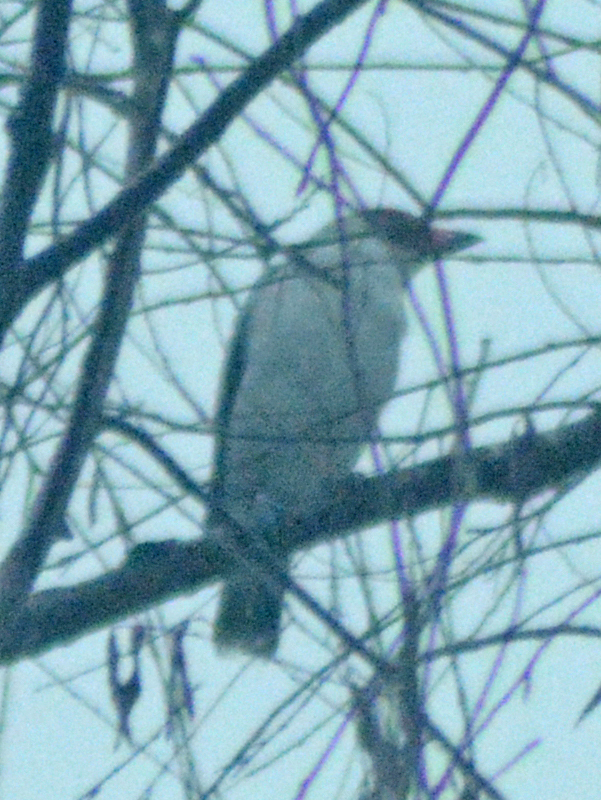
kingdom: Animalia
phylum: Chordata
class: Aves
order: Passeriformes
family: Cotingidae
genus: Tityra
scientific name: Tityra semifasciata
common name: Masked tityra
